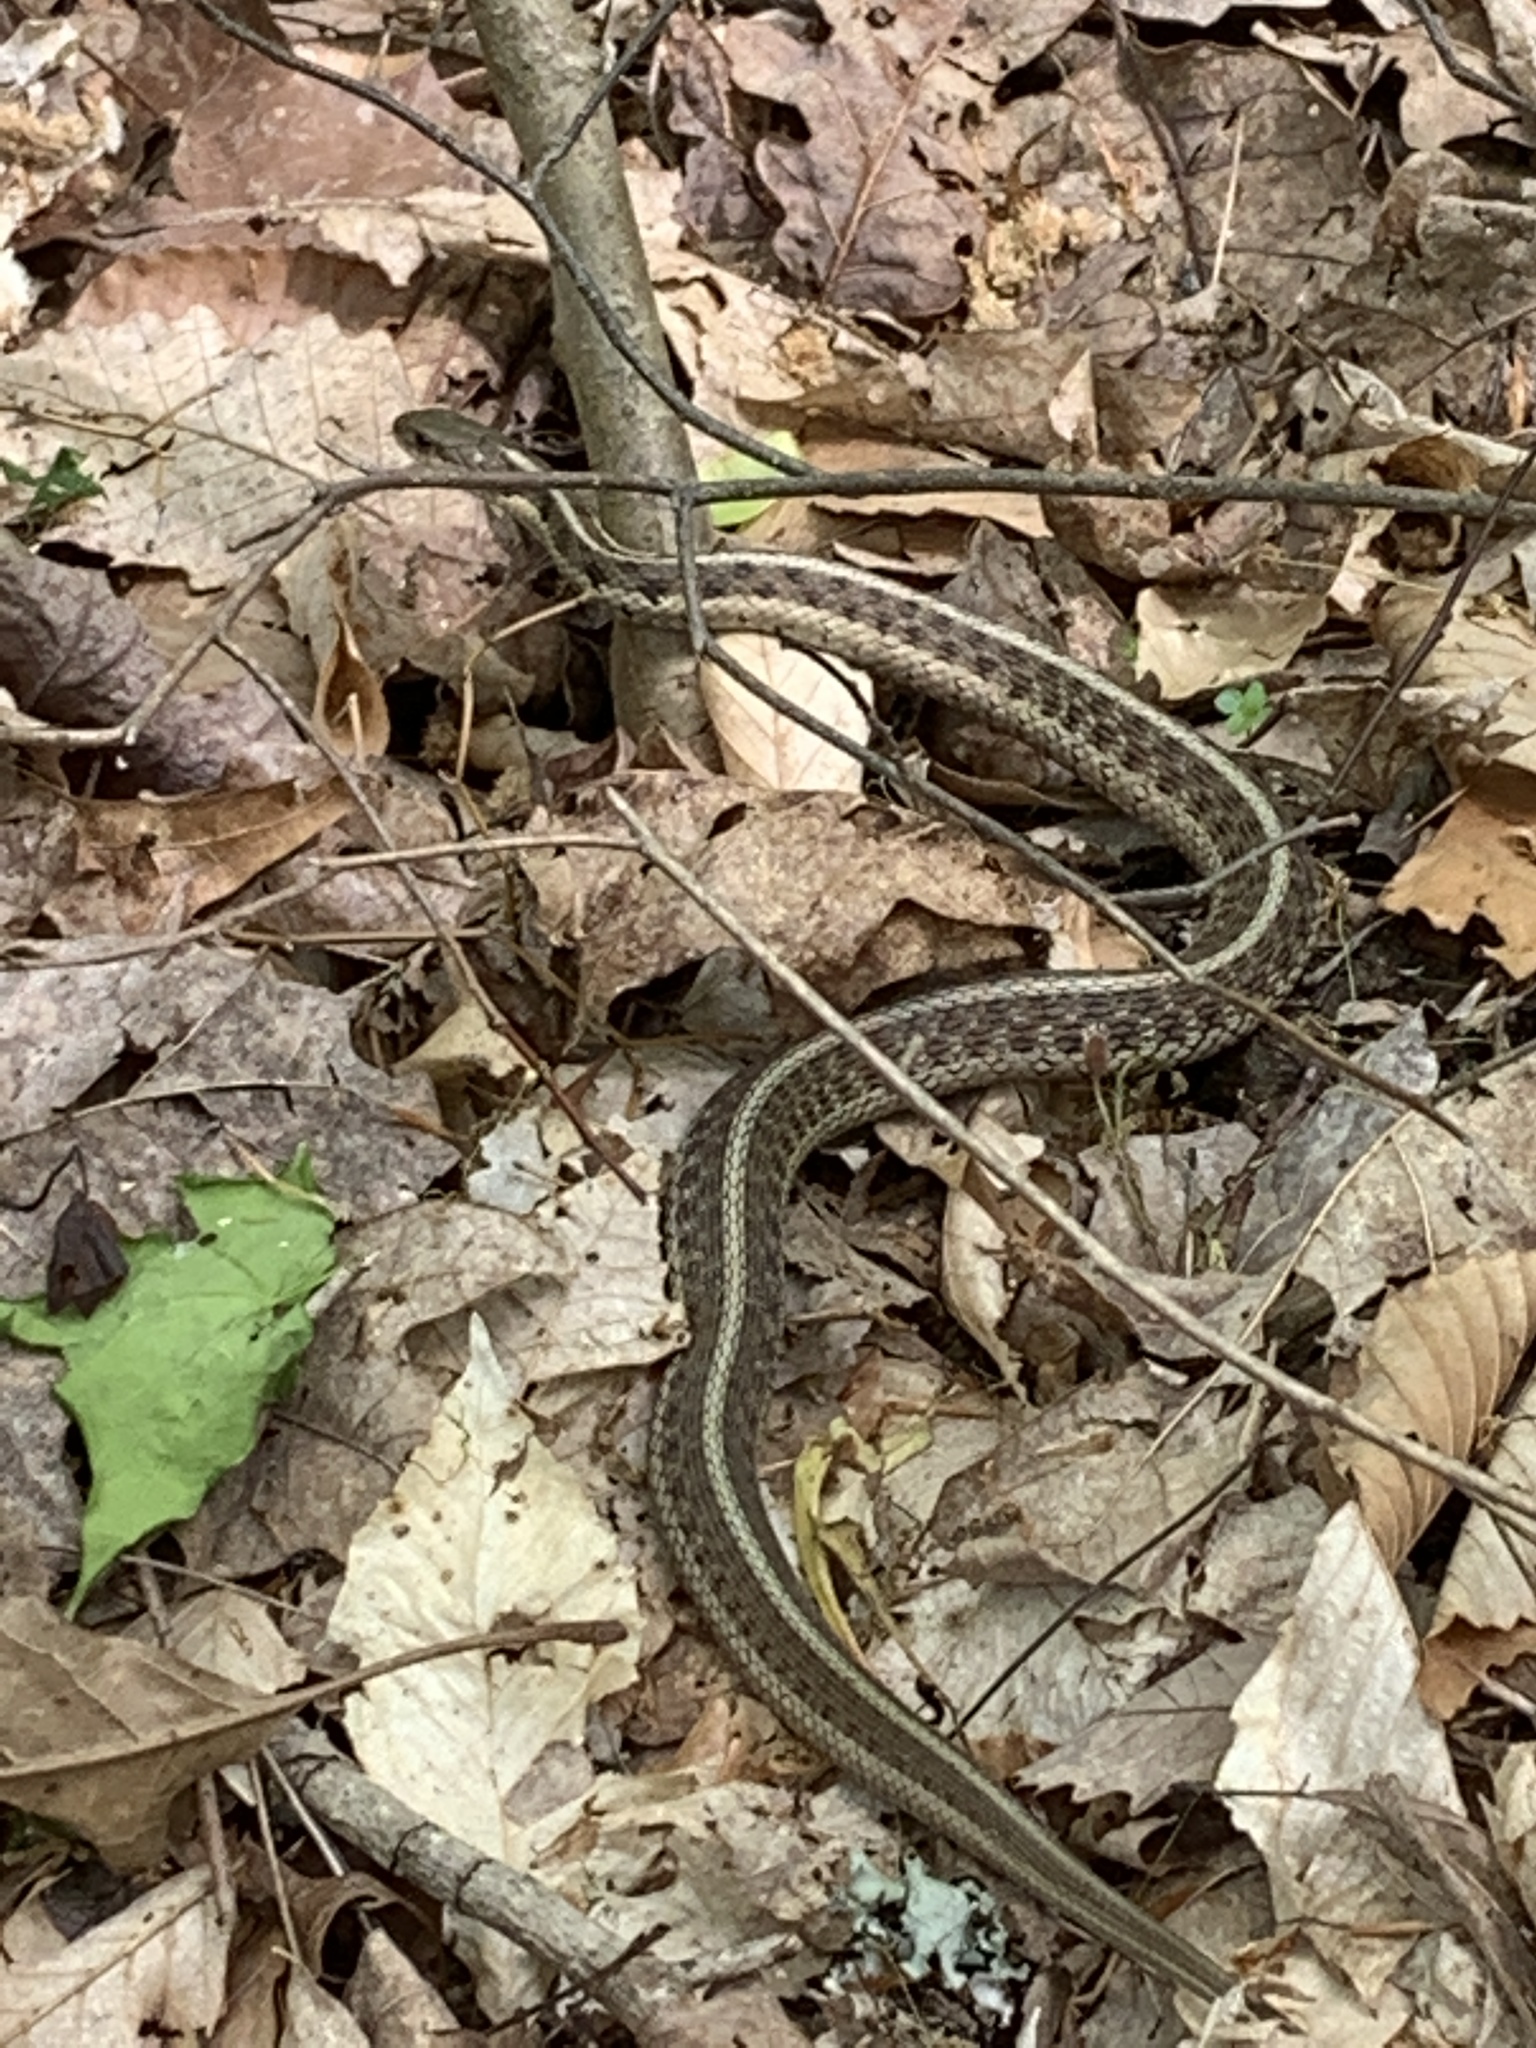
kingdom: Animalia
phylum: Chordata
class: Squamata
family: Colubridae
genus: Thamnophis
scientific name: Thamnophis sirtalis
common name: Common garter snake
